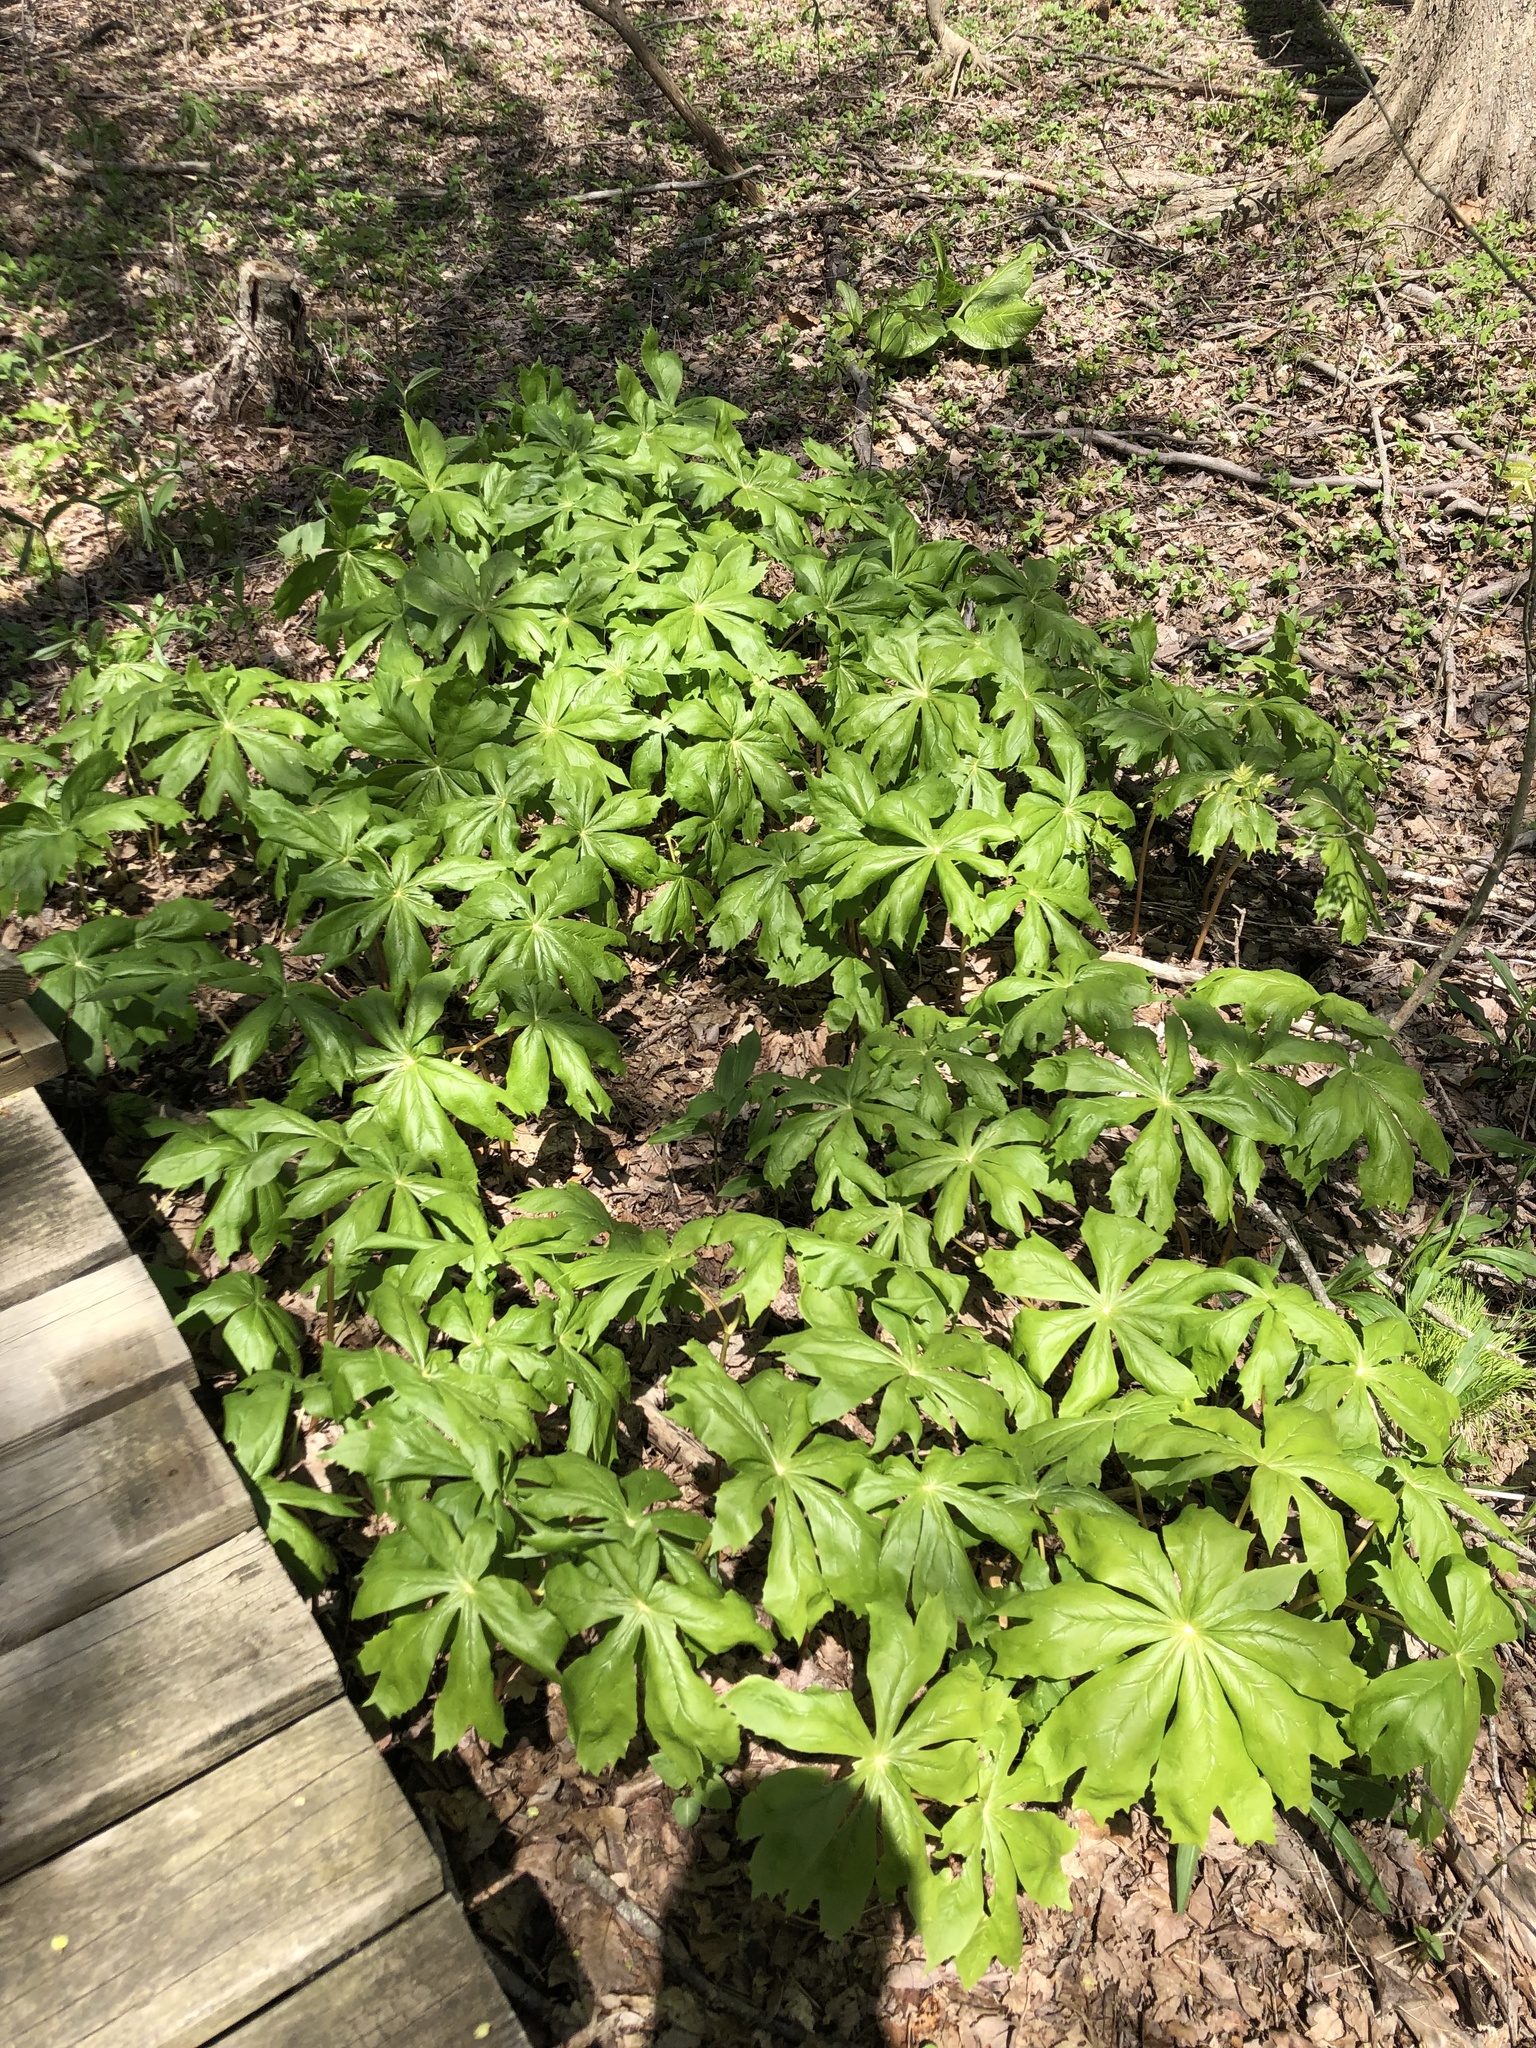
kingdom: Plantae
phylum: Tracheophyta
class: Magnoliopsida
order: Ranunculales
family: Berberidaceae
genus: Podophyllum
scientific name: Podophyllum peltatum
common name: Wild mandrake
